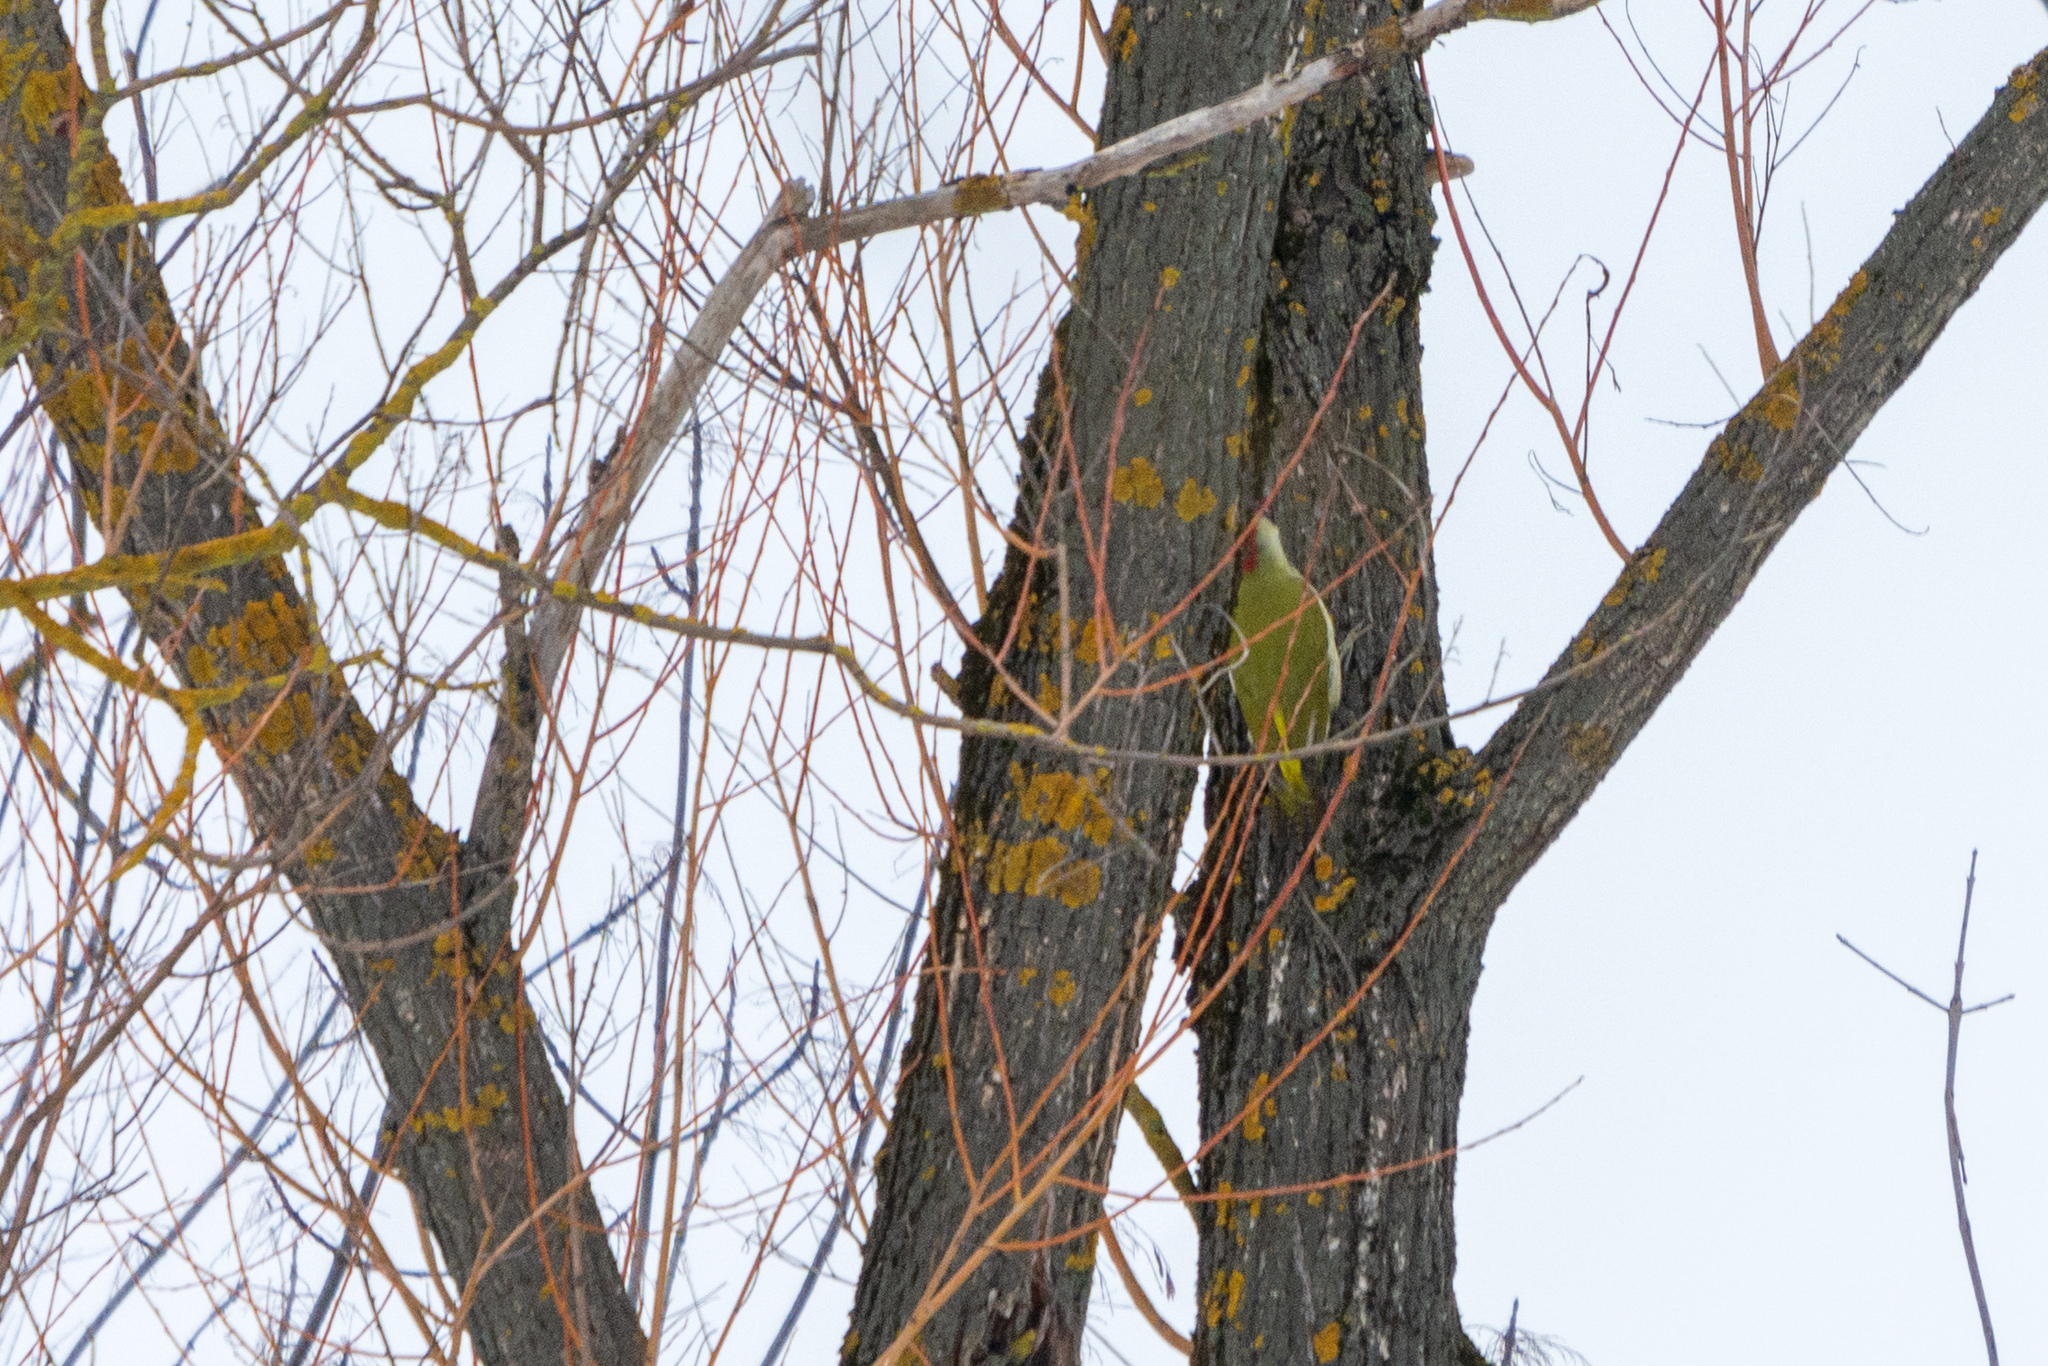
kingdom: Animalia
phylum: Chordata
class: Aves
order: Piciformes
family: Picidae
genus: Picus
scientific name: Picus viridis
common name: European green woodpecker
